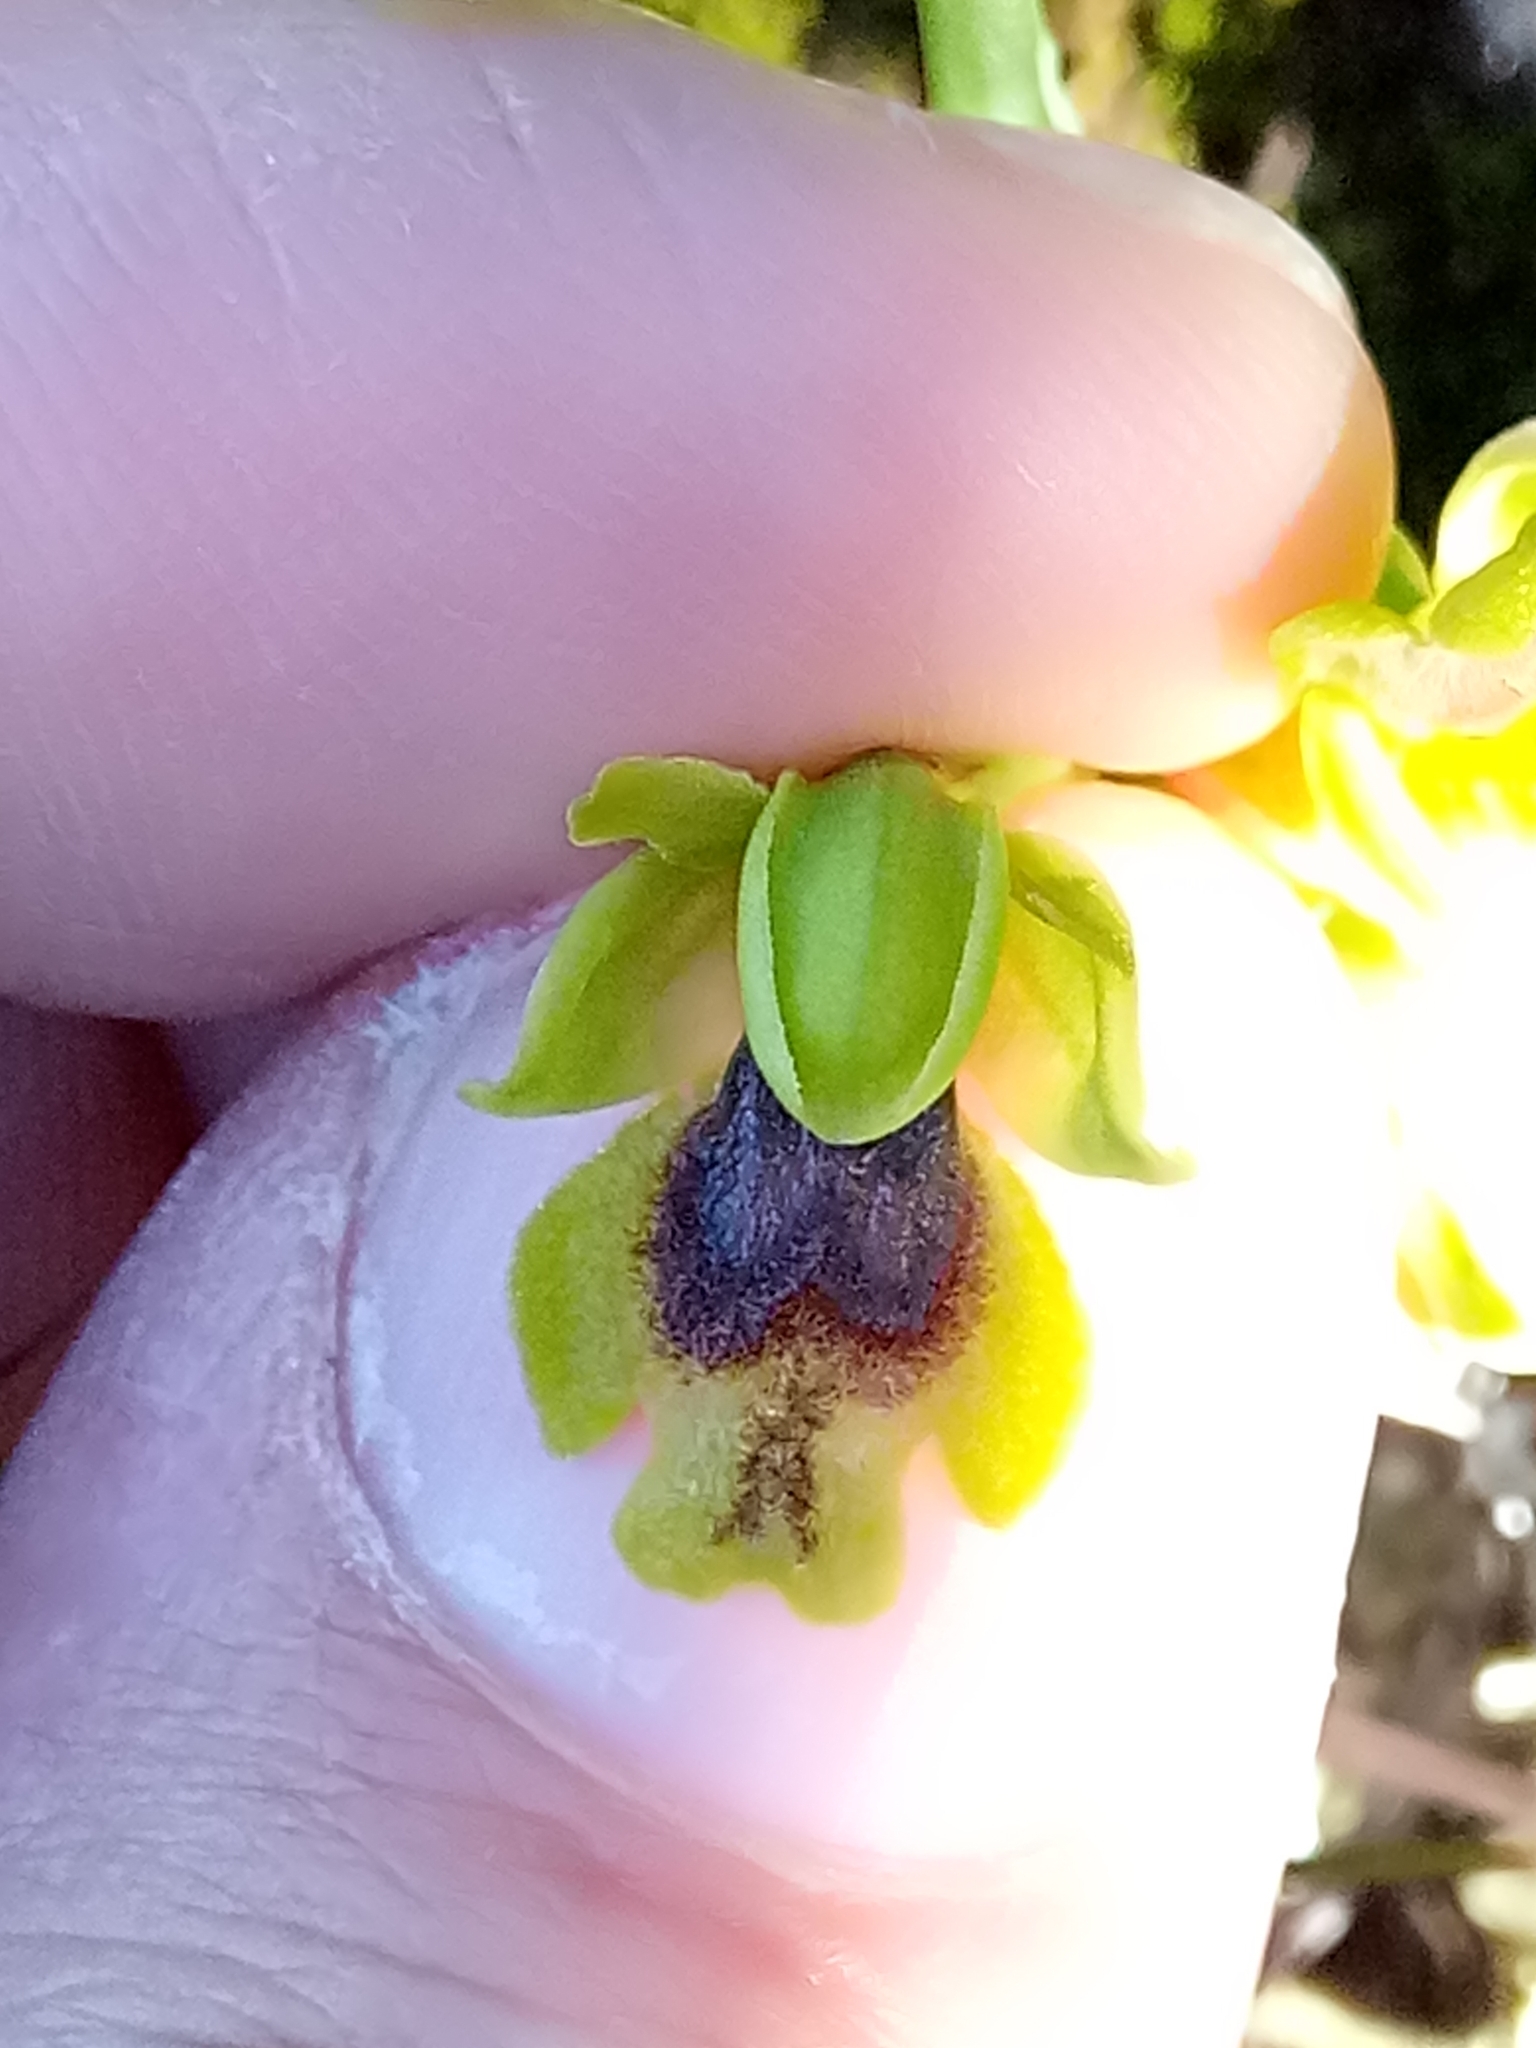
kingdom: Plantae
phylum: Tracheophyta
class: Liliopsida
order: Asparagales
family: Orchidaceae
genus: Ophrys
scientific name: Ophrys battandieri
